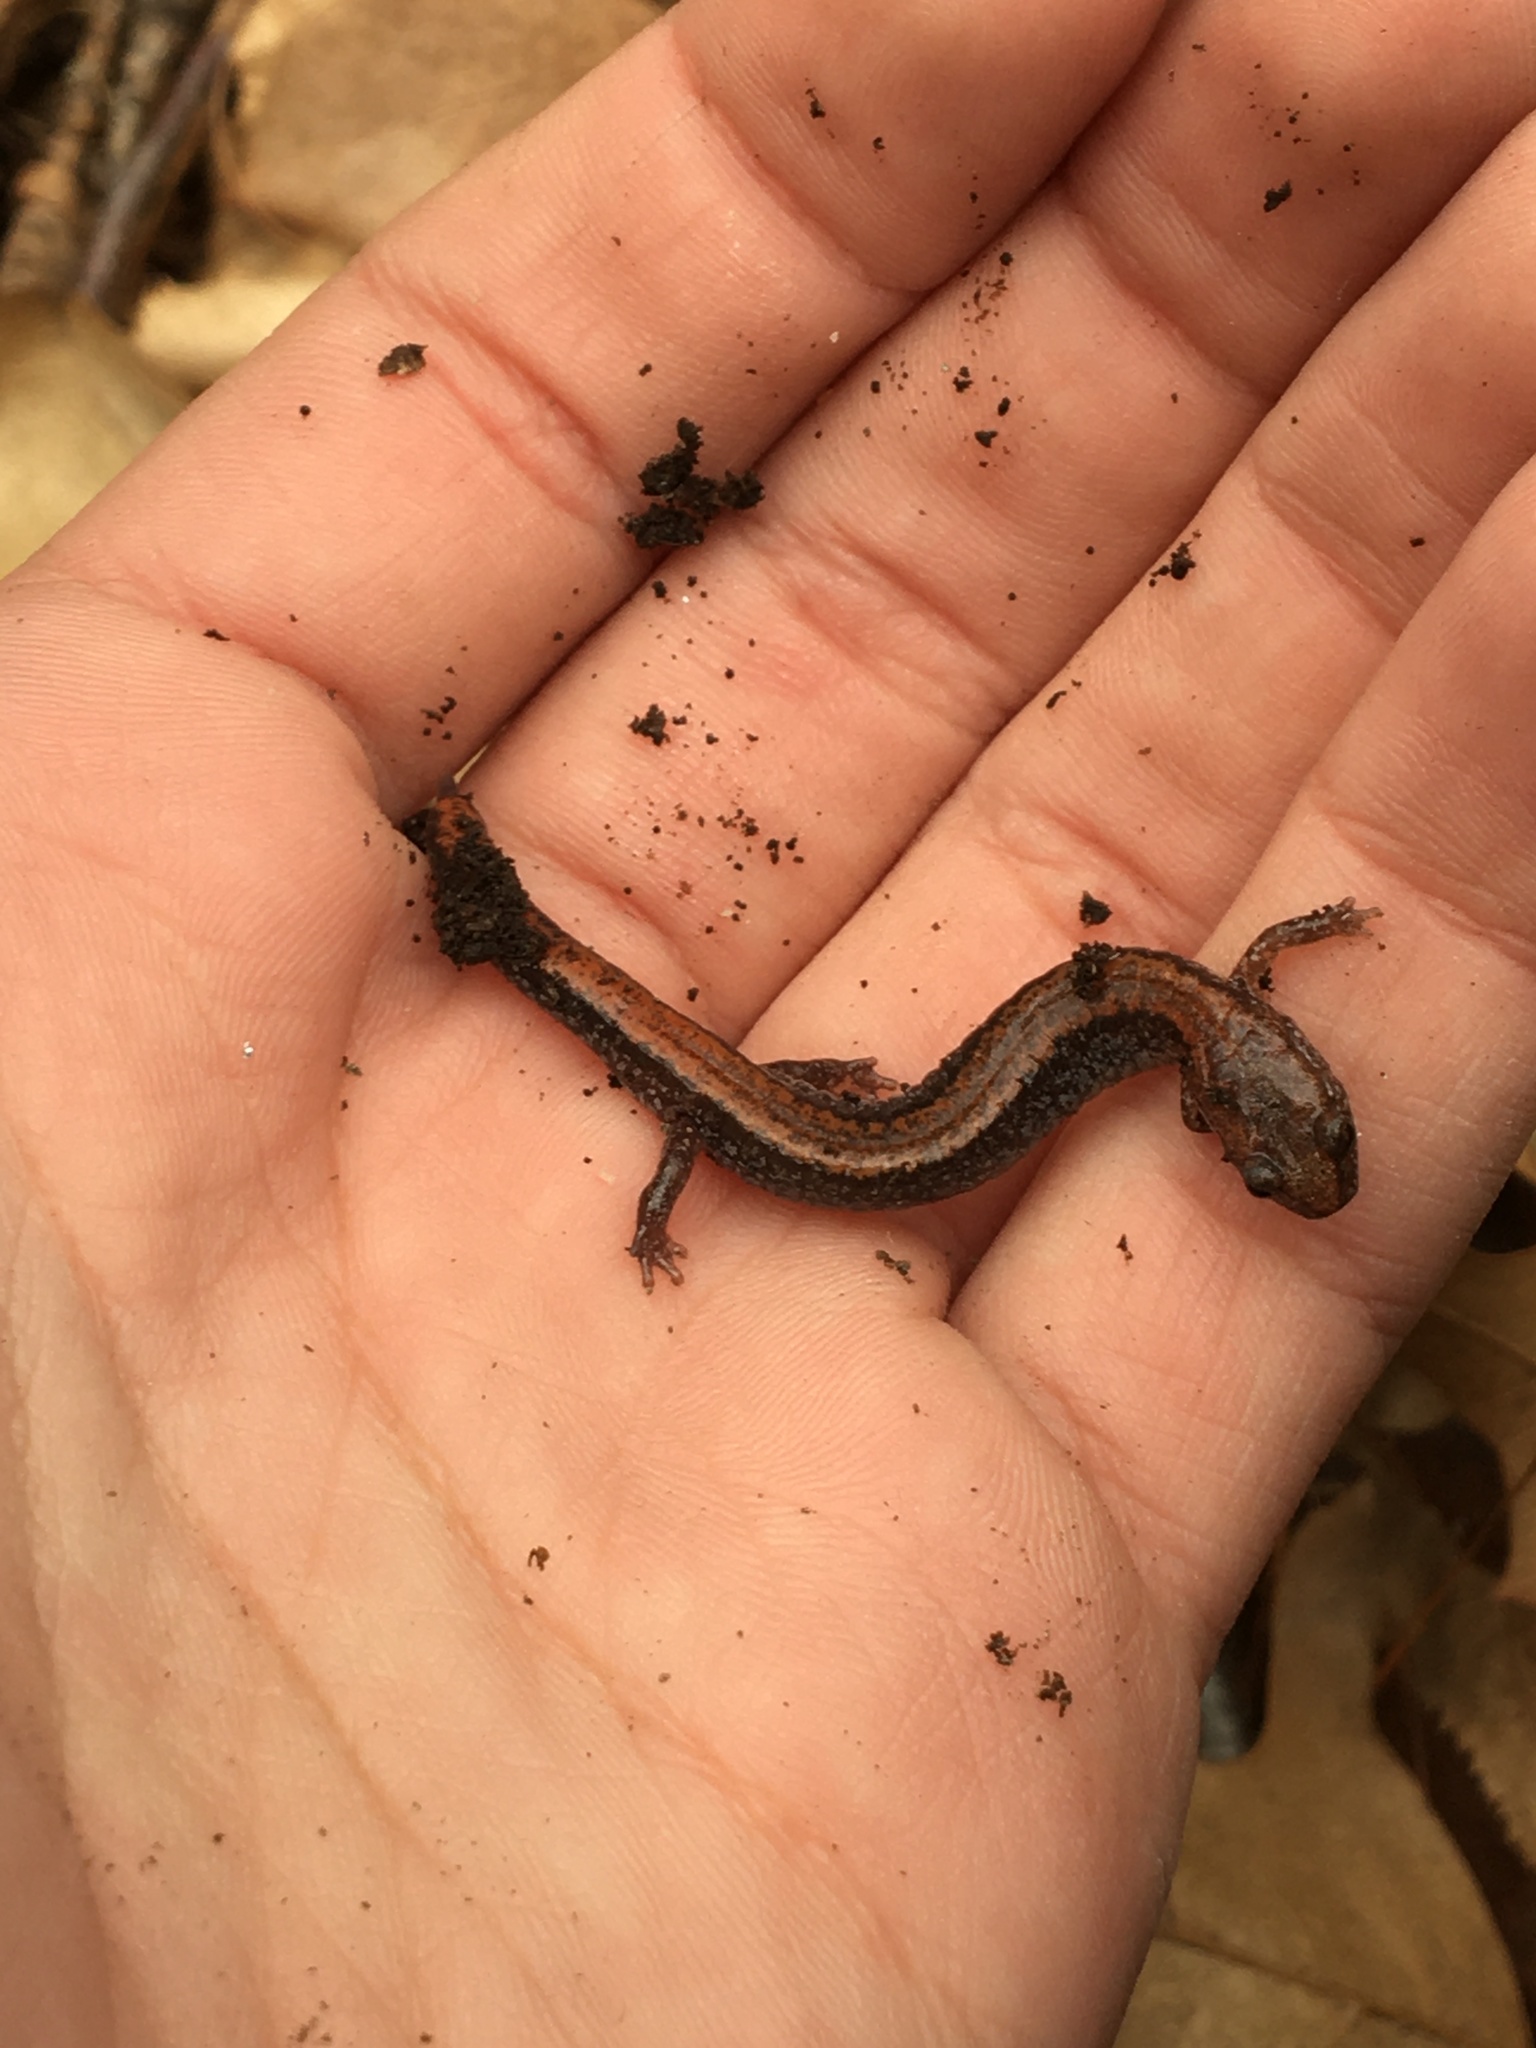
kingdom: Animalia
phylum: Chordata
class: Amphibia
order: Caudata
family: Plethodontidae
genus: Plethodon
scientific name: Plethodon cinereus
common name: Redback salamander
